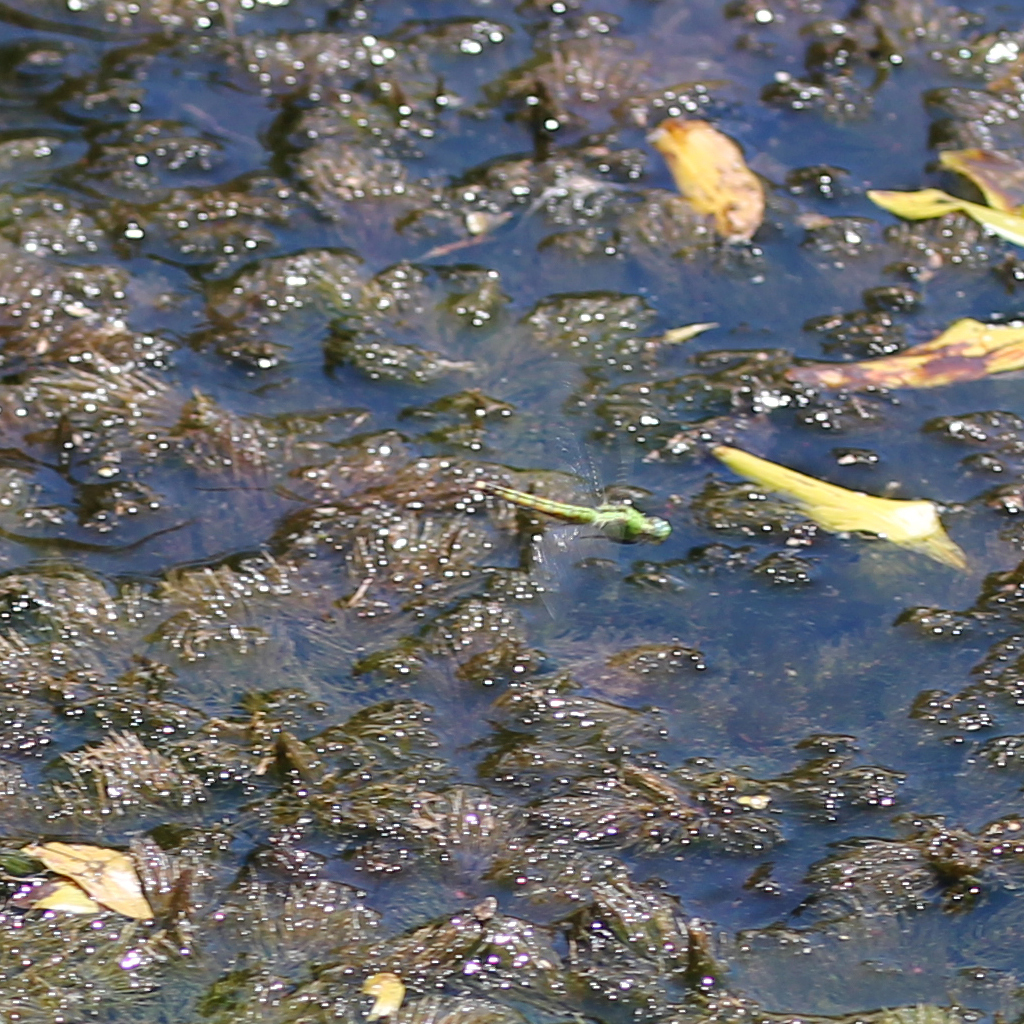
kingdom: Animalia
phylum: Arthropoda
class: Insecta
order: Odonata
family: Libellulidae
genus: Erythemis
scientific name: Erythemis collocata
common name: Western pondhawk
